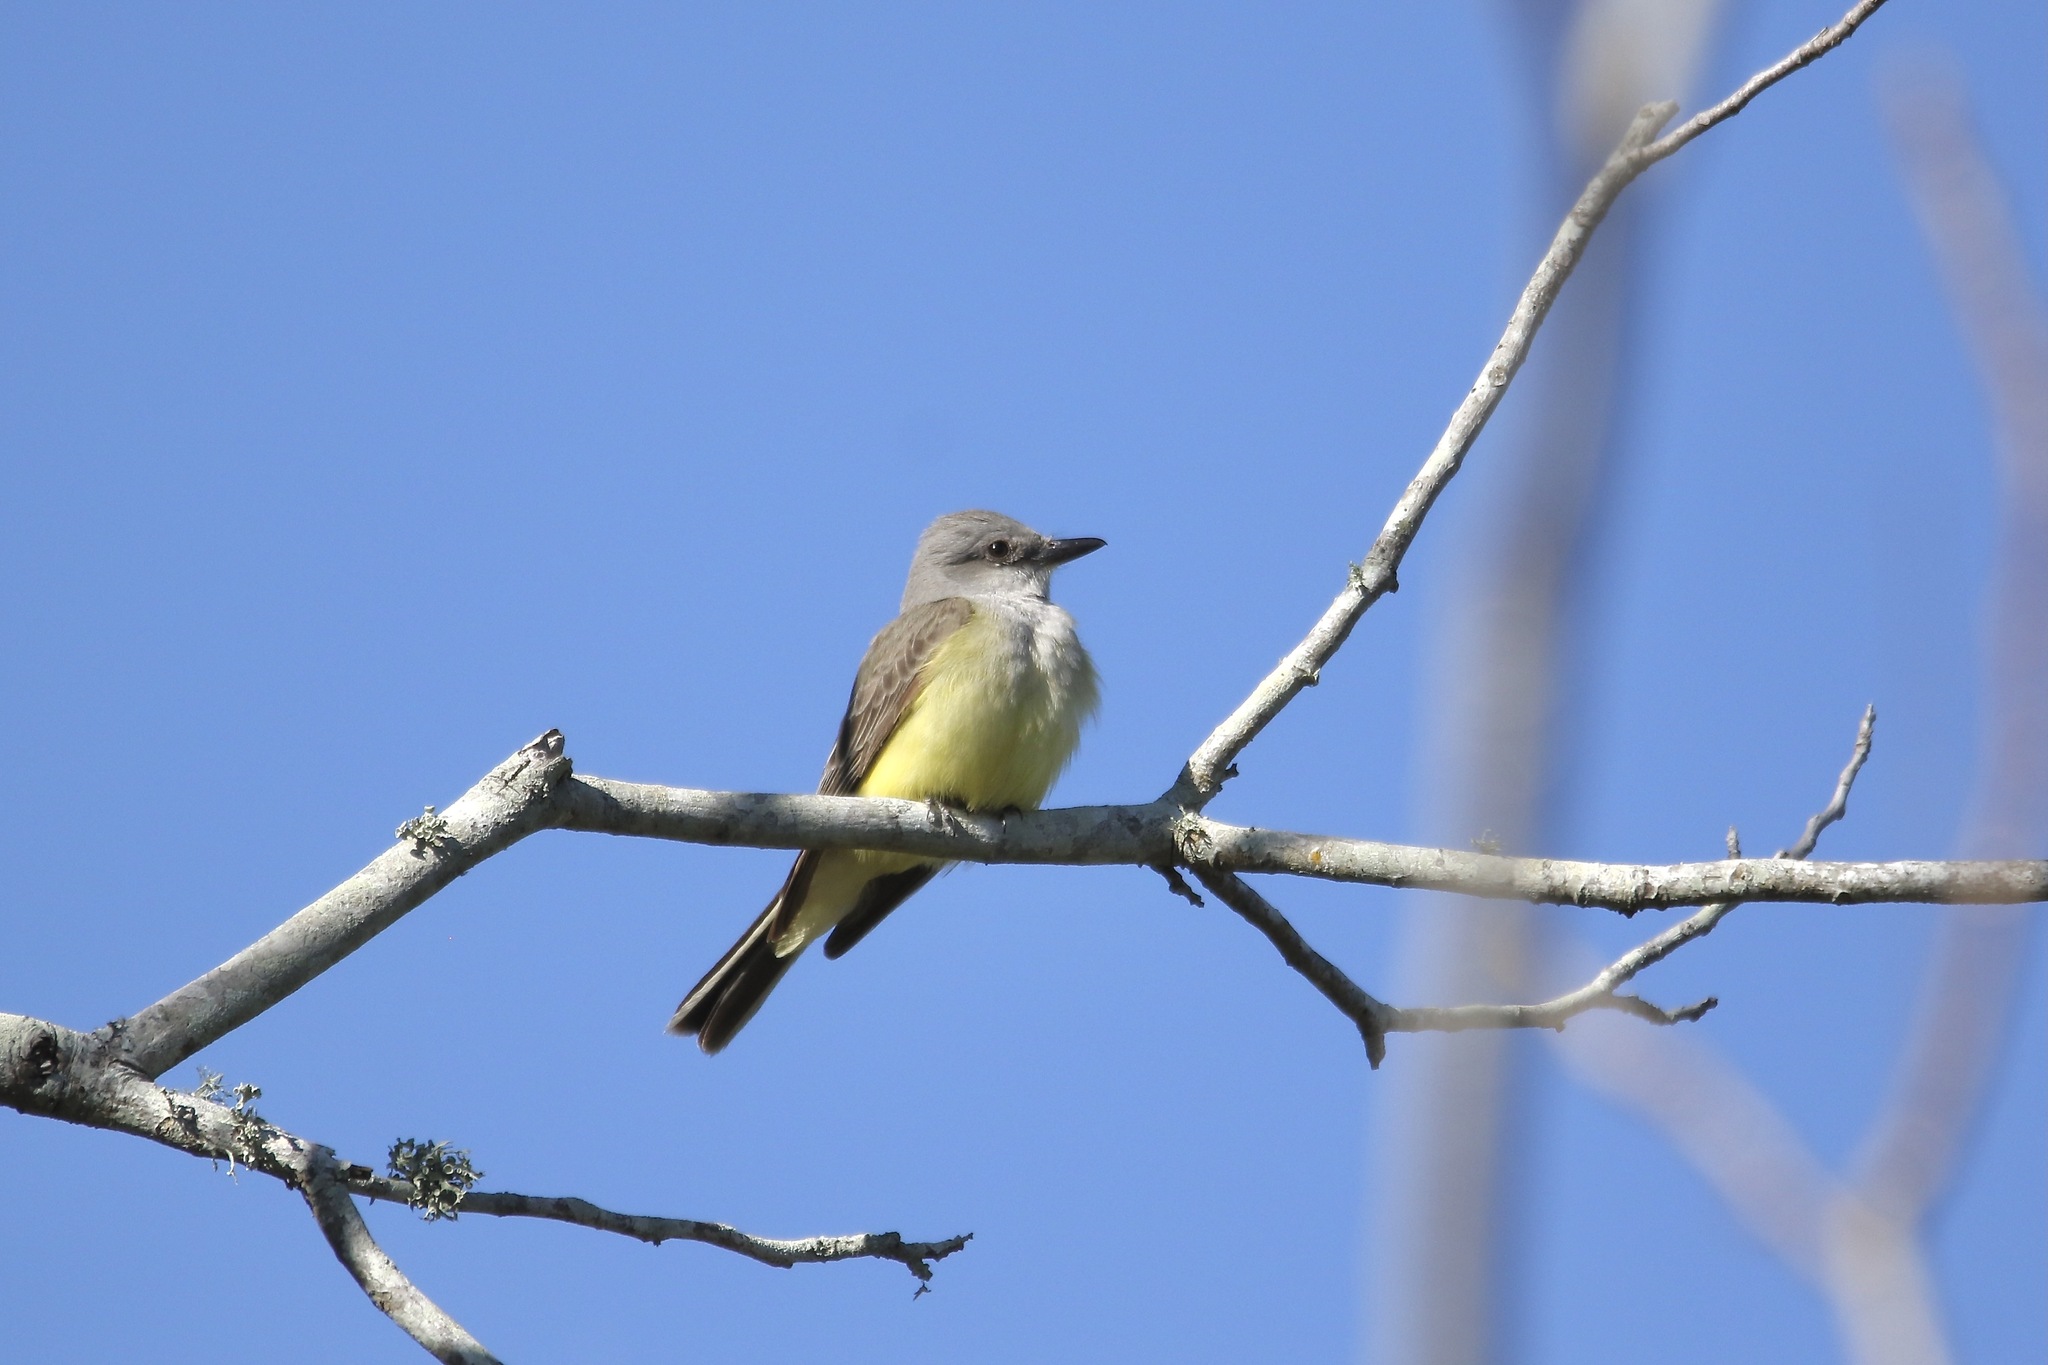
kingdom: Animalia
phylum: Chordata
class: Aves
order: Passeriformes
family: Tyrannidae
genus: Tyrannus
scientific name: Tyrannus verticalis
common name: Western kingbird
